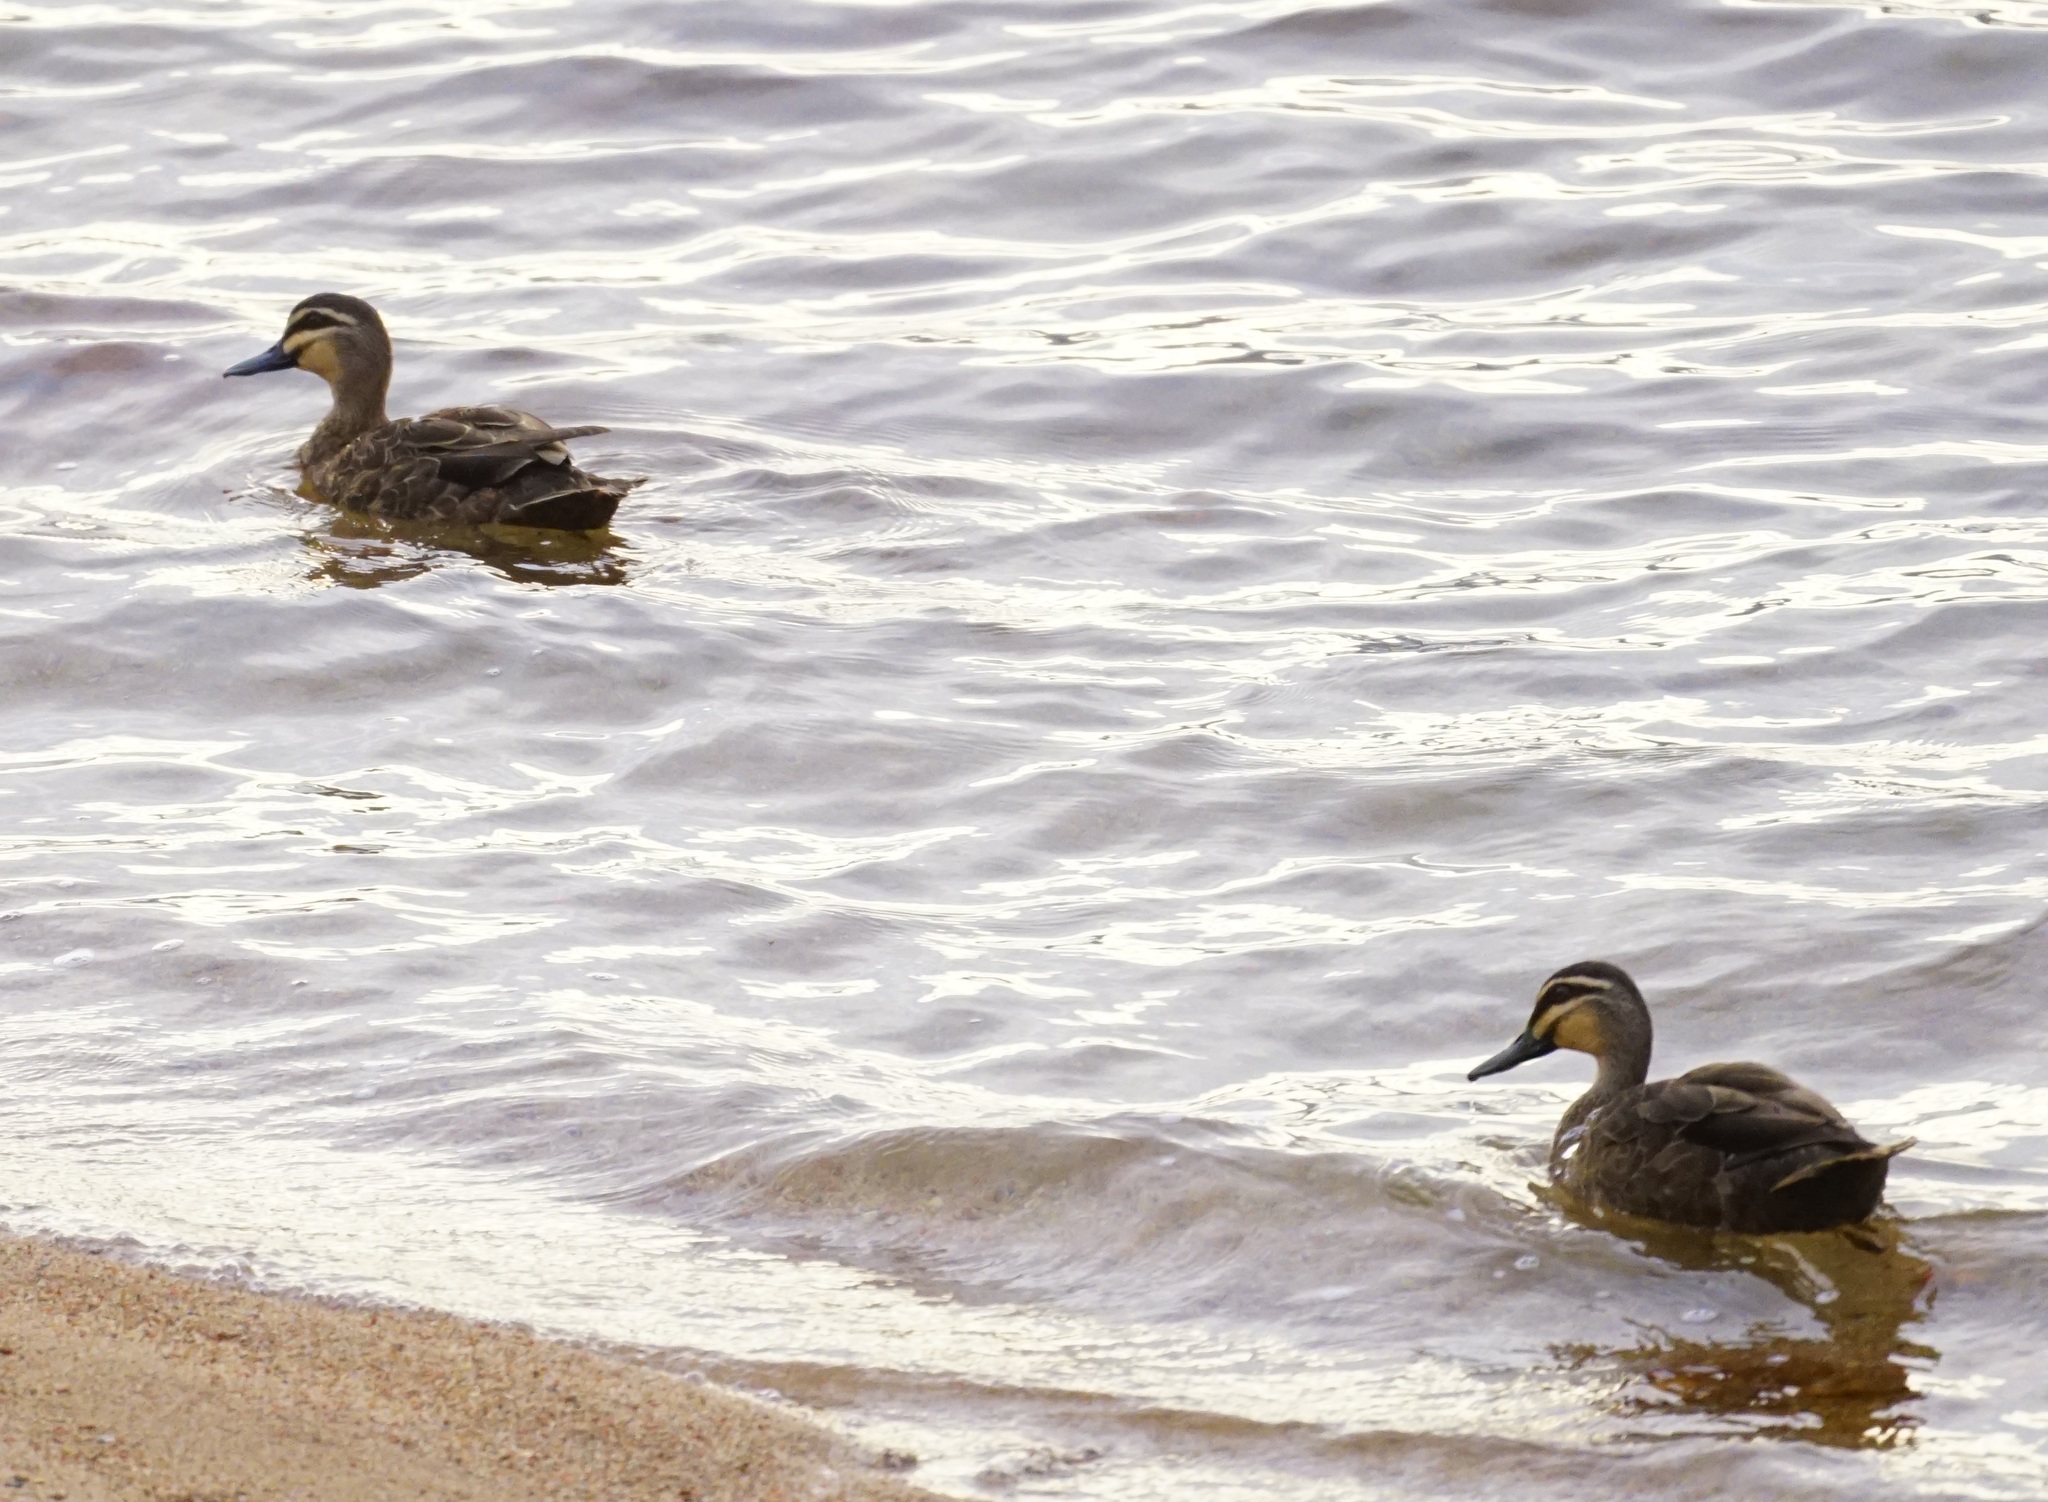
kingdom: Animalia
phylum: Chordata
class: Aves
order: Anseriformes
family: Anatidae
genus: Anas
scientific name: Anas superciliosa
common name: Pacific black duck
